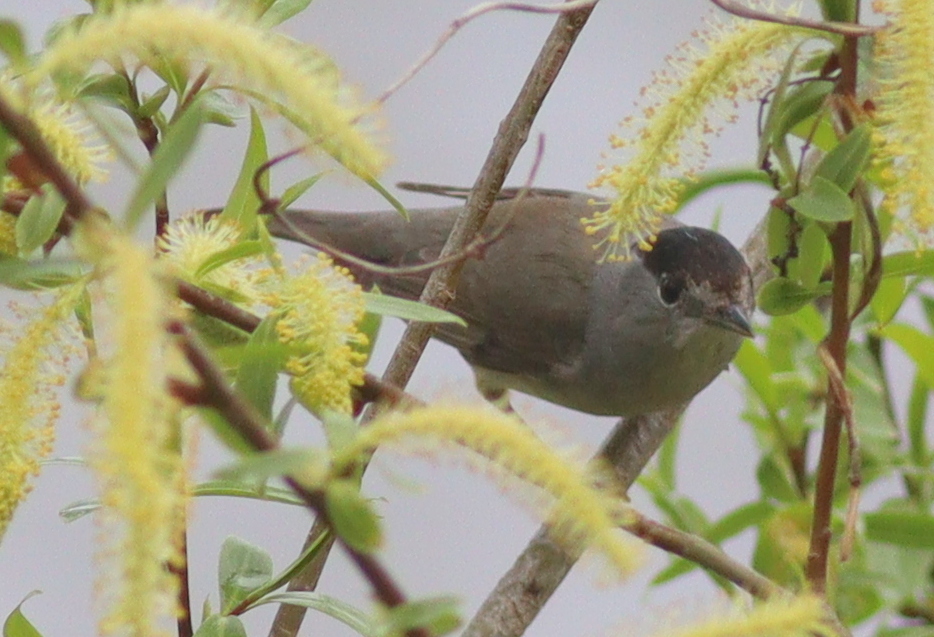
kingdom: Animalia
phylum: Chordata
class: Aves
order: Passeriformes
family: Sylviidae
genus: Sylvia
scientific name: Sylvia atricapilla
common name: Eurasian blackcap
